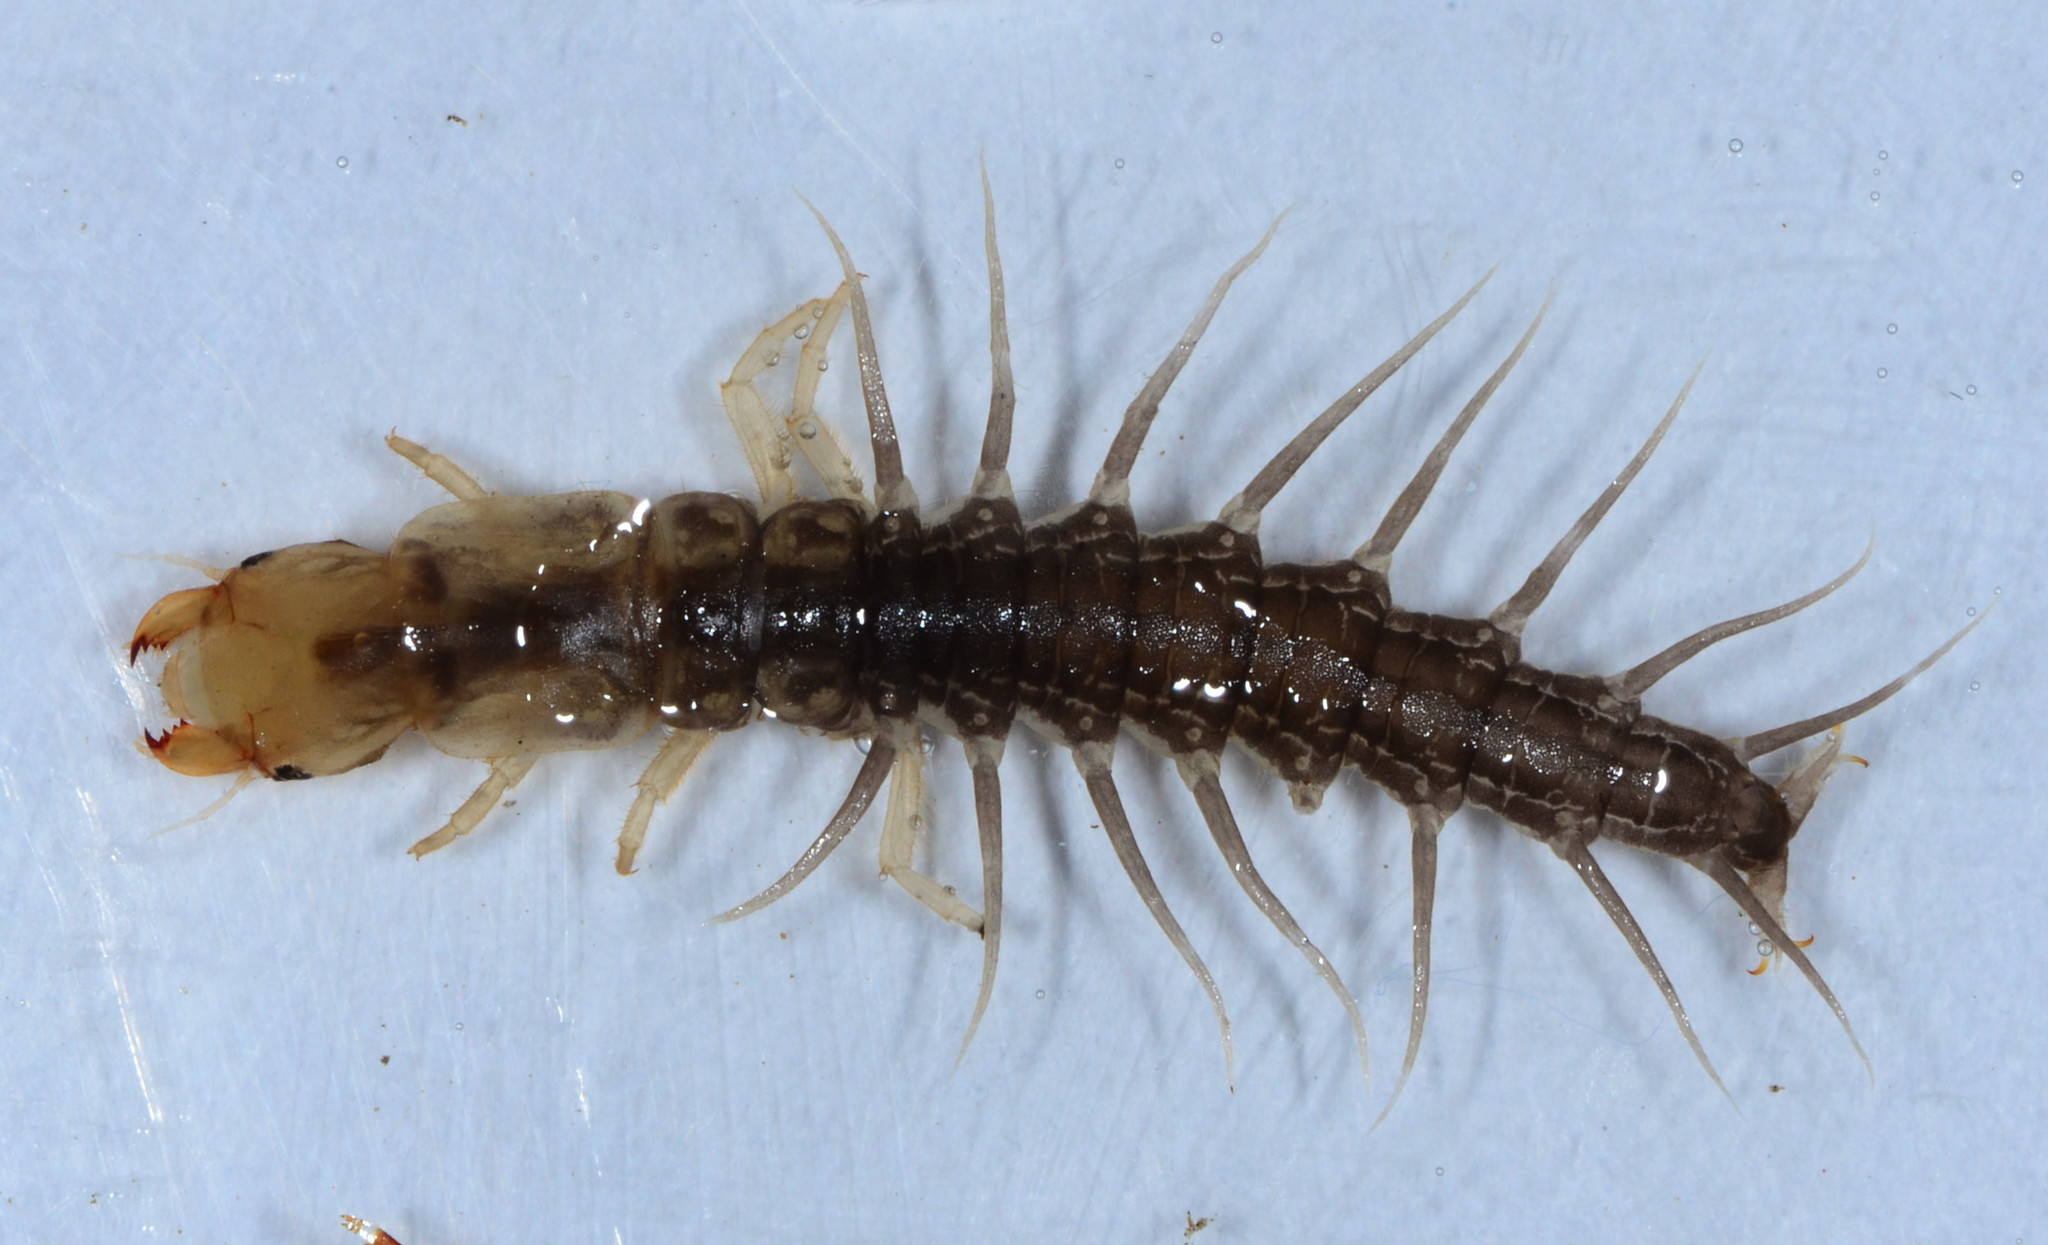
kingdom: Animalia
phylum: Arthropoda
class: Insecta
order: Megaloptera
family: Corydalidae
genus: Neohermes
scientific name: Neohermes filicornis
